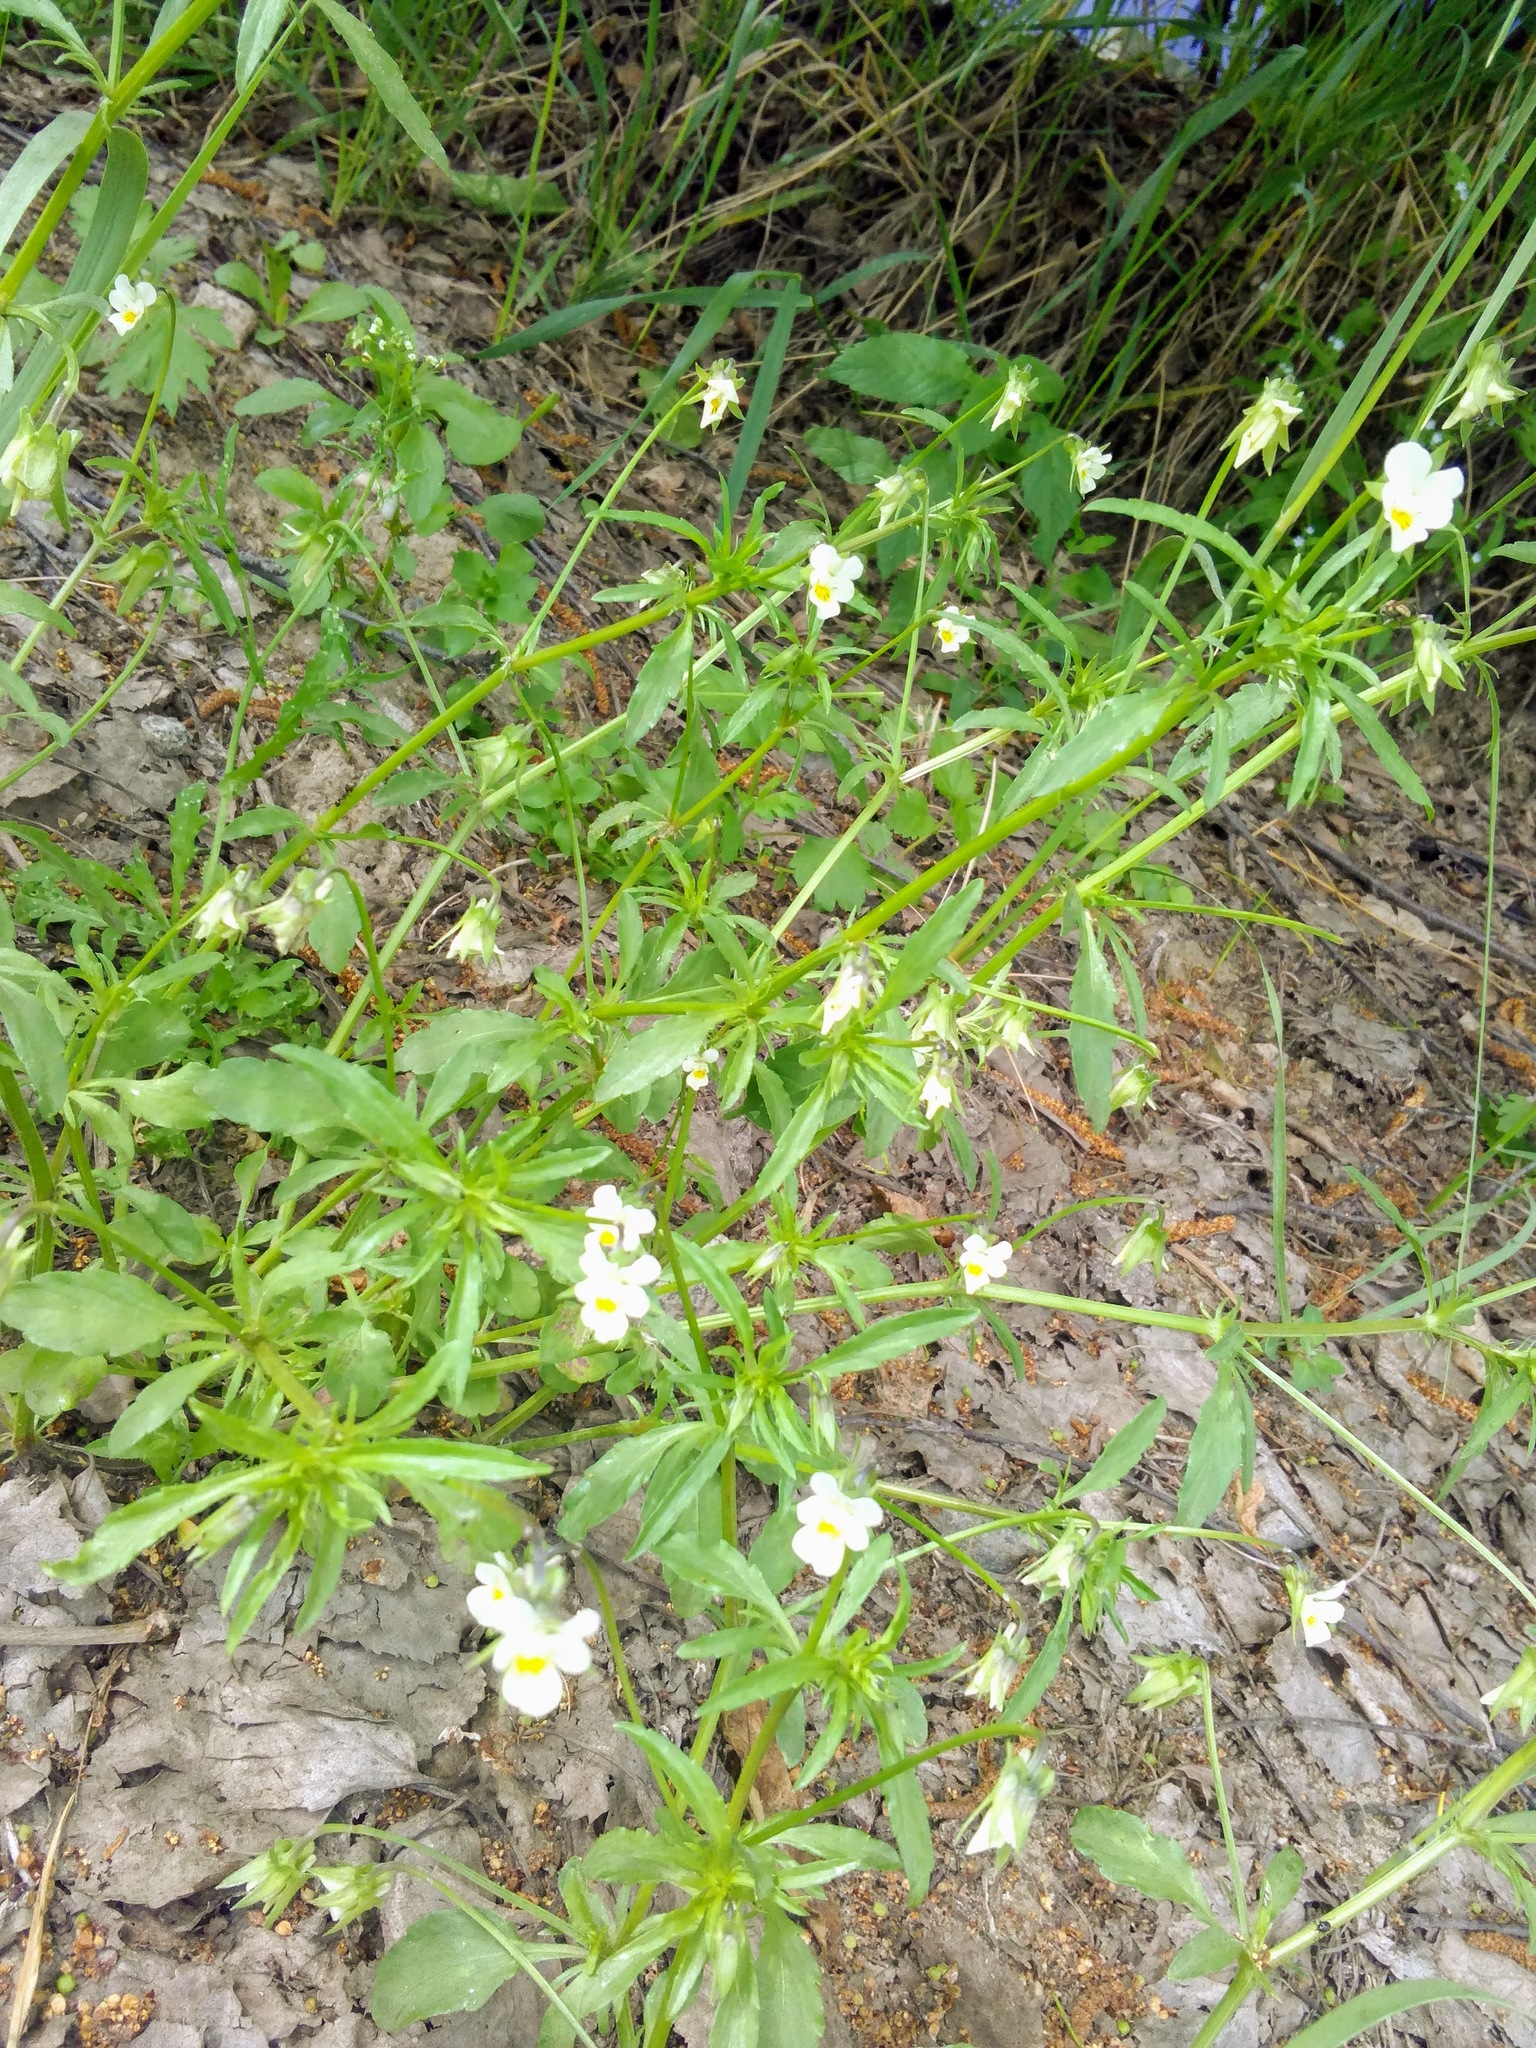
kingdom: Plantae
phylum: Tracheophyta
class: Magnoliopsida
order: Malpighiales
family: Violaceae
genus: Viola
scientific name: Viola arvensis
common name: Field pansy
